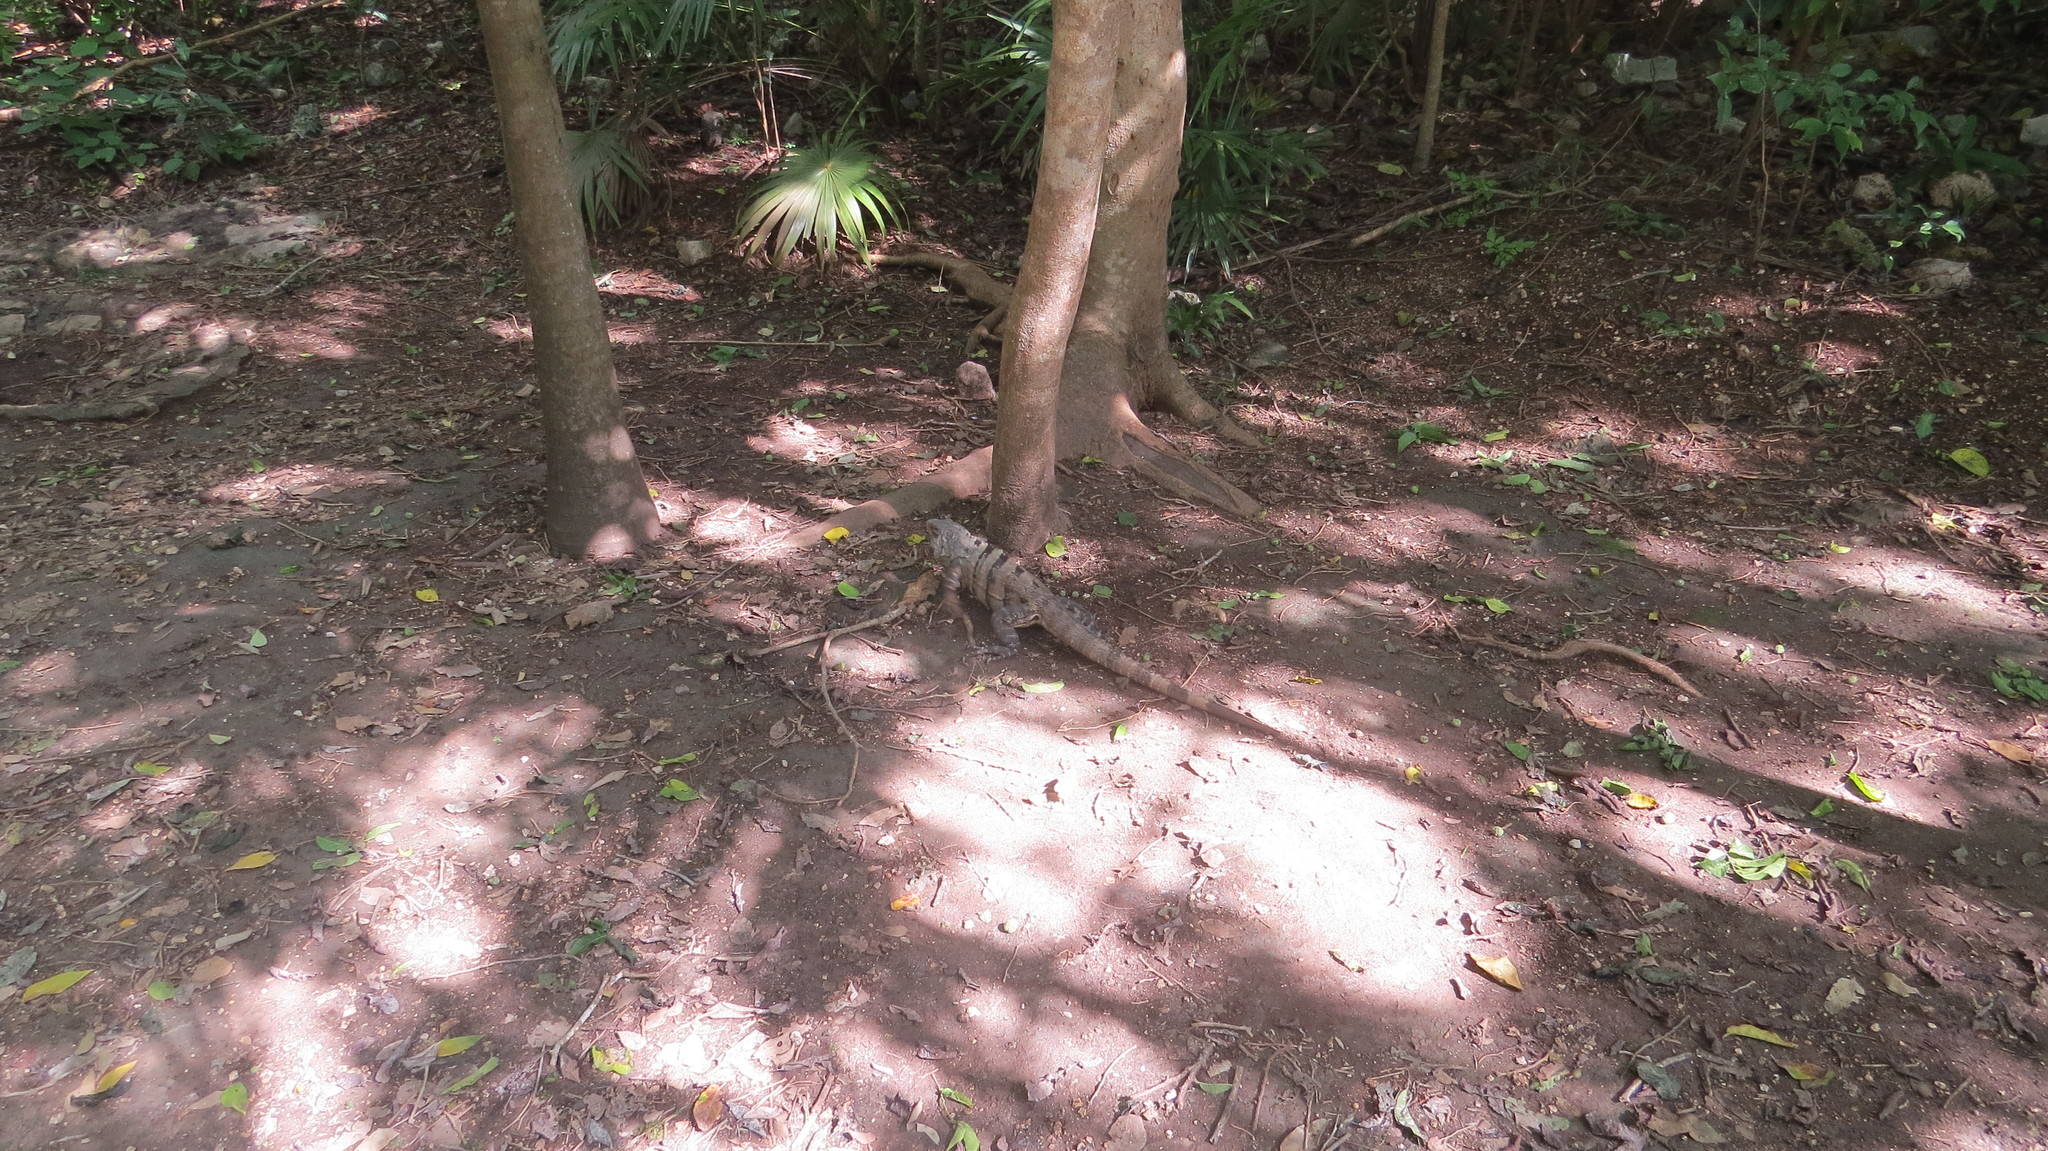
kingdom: Animalia
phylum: Chordata
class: Squamata
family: Iguanidae
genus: Ctenosaura
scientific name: Ctenosaura similis
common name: Black spiny-tailed iguana
